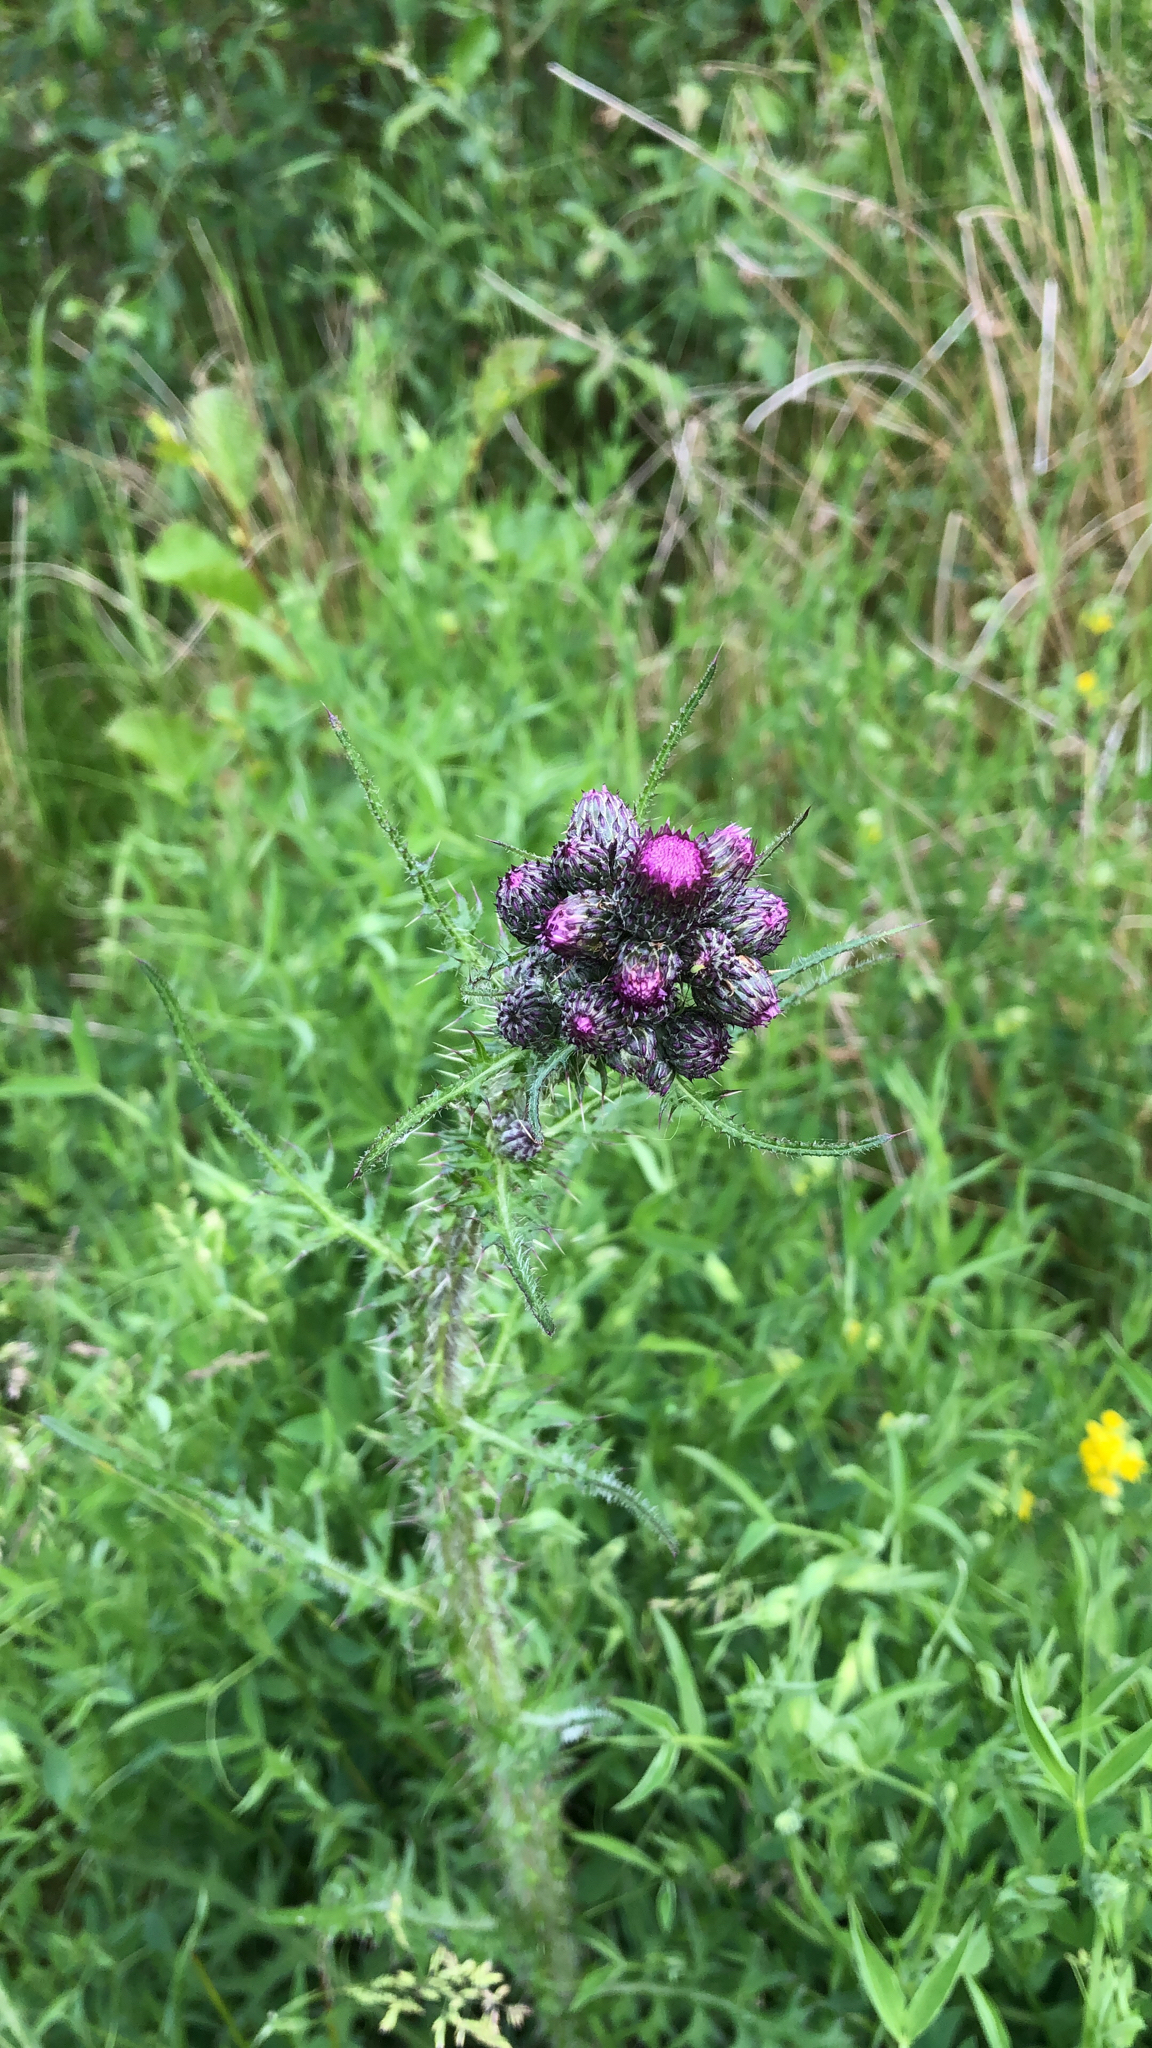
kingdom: Plantae
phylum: Tracheophyta
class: Magnoliopsida
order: Asterales
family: Asteraceae
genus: Cirsium
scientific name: Cirsium palustre
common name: Marsh thistle
